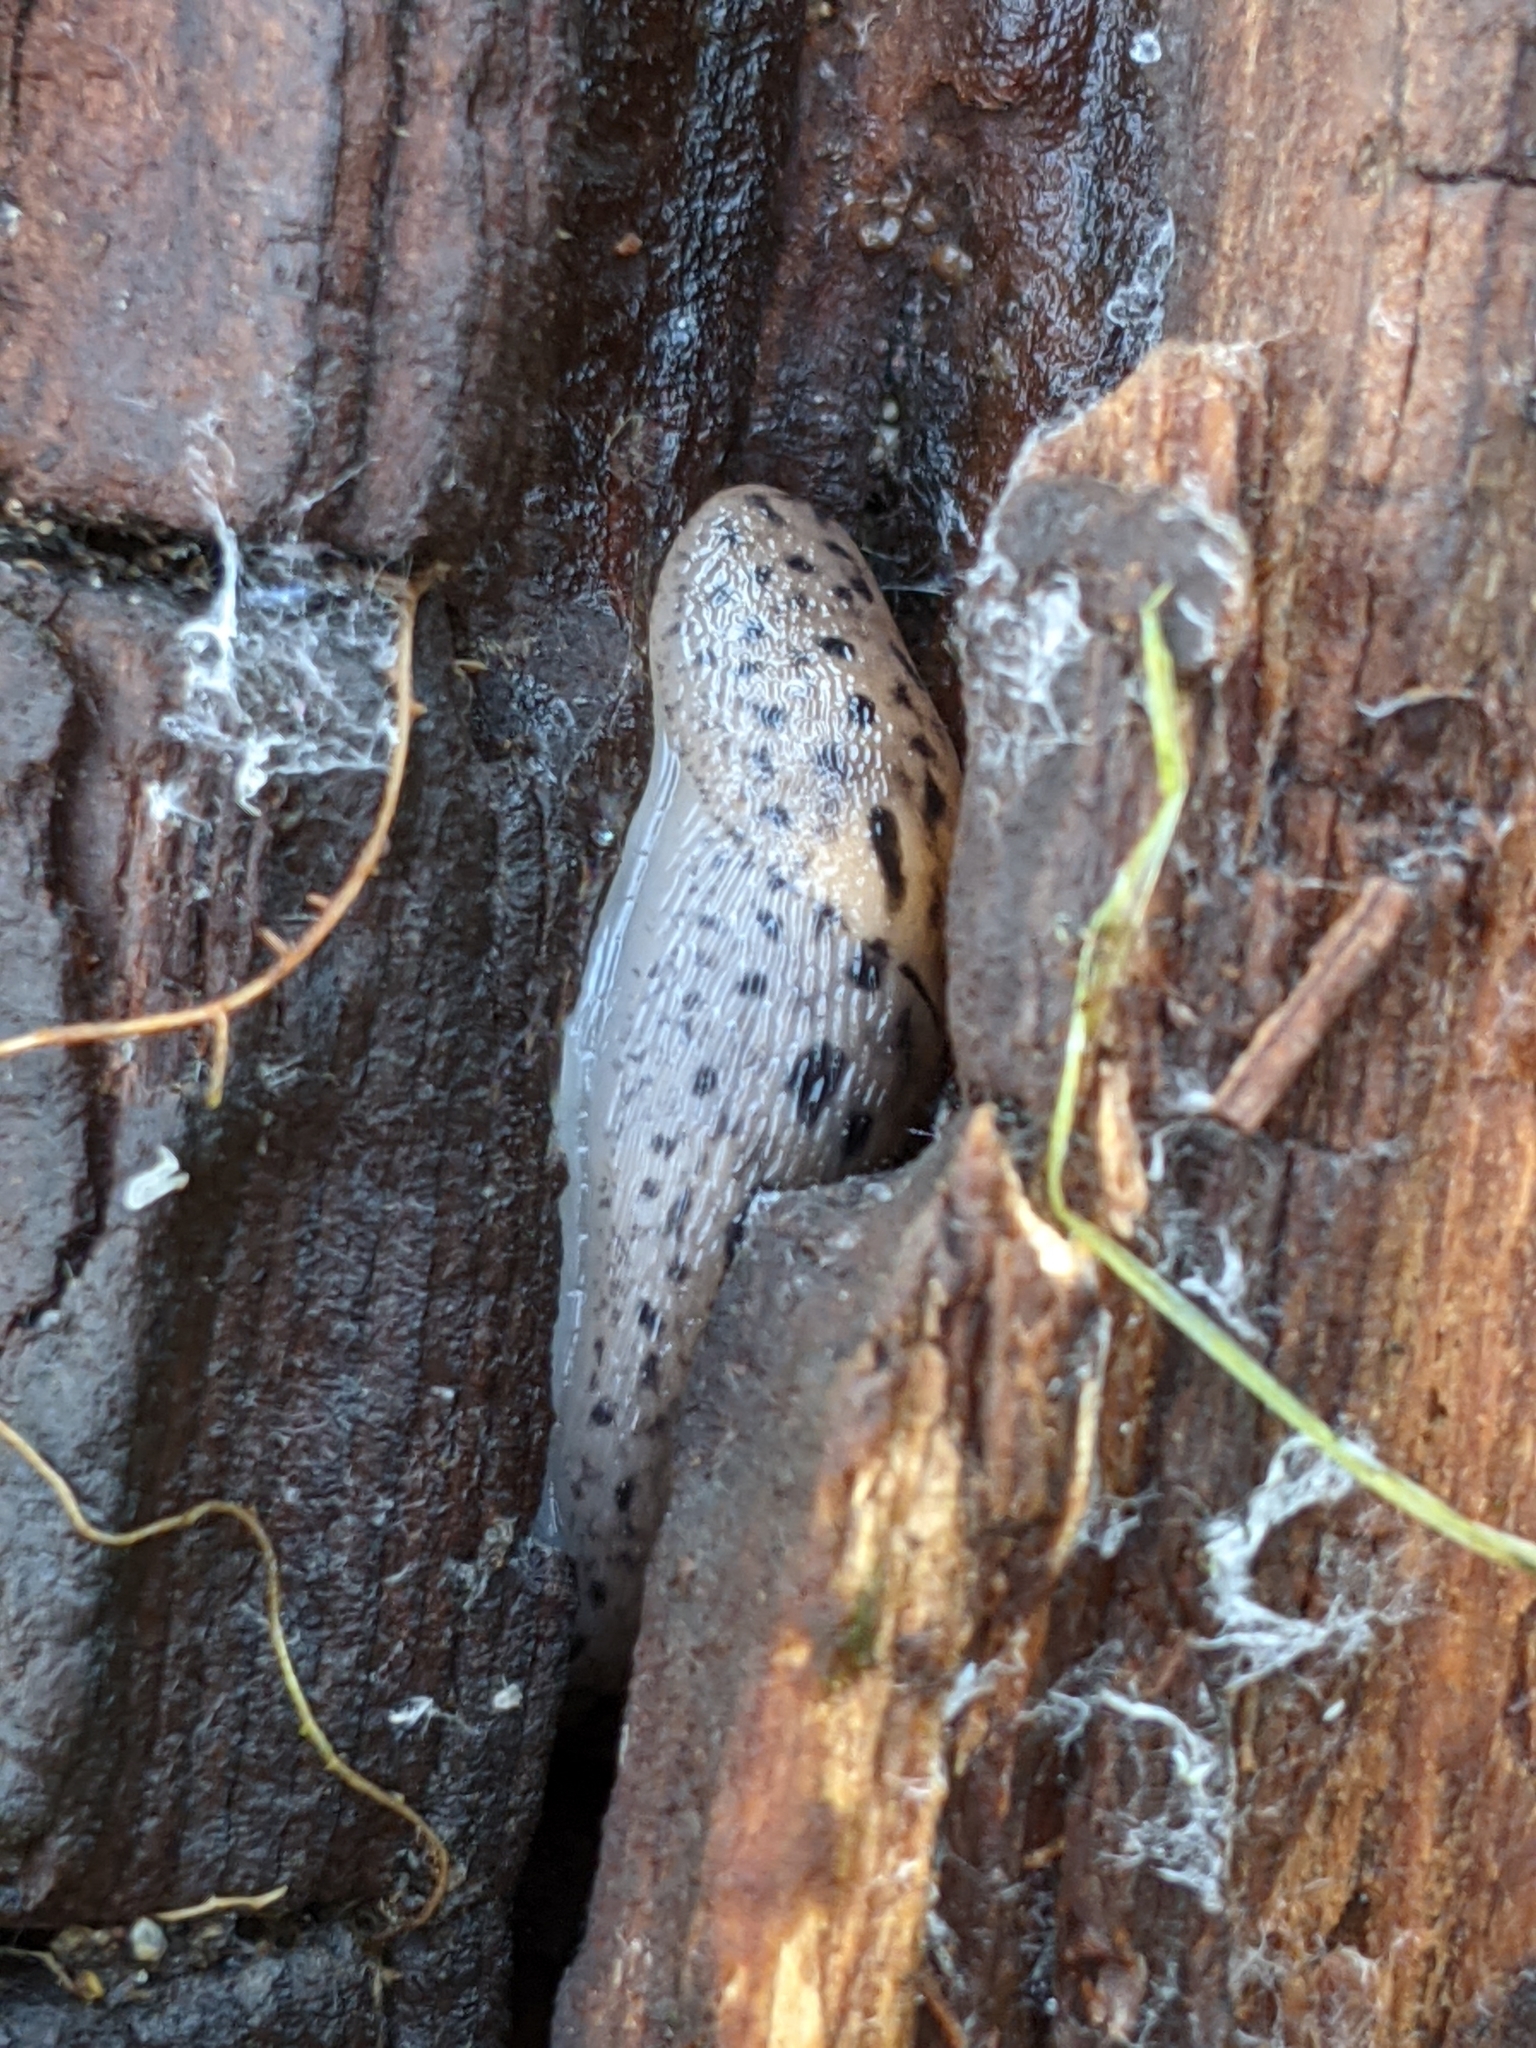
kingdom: Animalia
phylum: Mollusca
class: Gastropoda
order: Stylommatophora
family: Limacidae
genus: Limax
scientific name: Limax maximus
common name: Great grey slug
